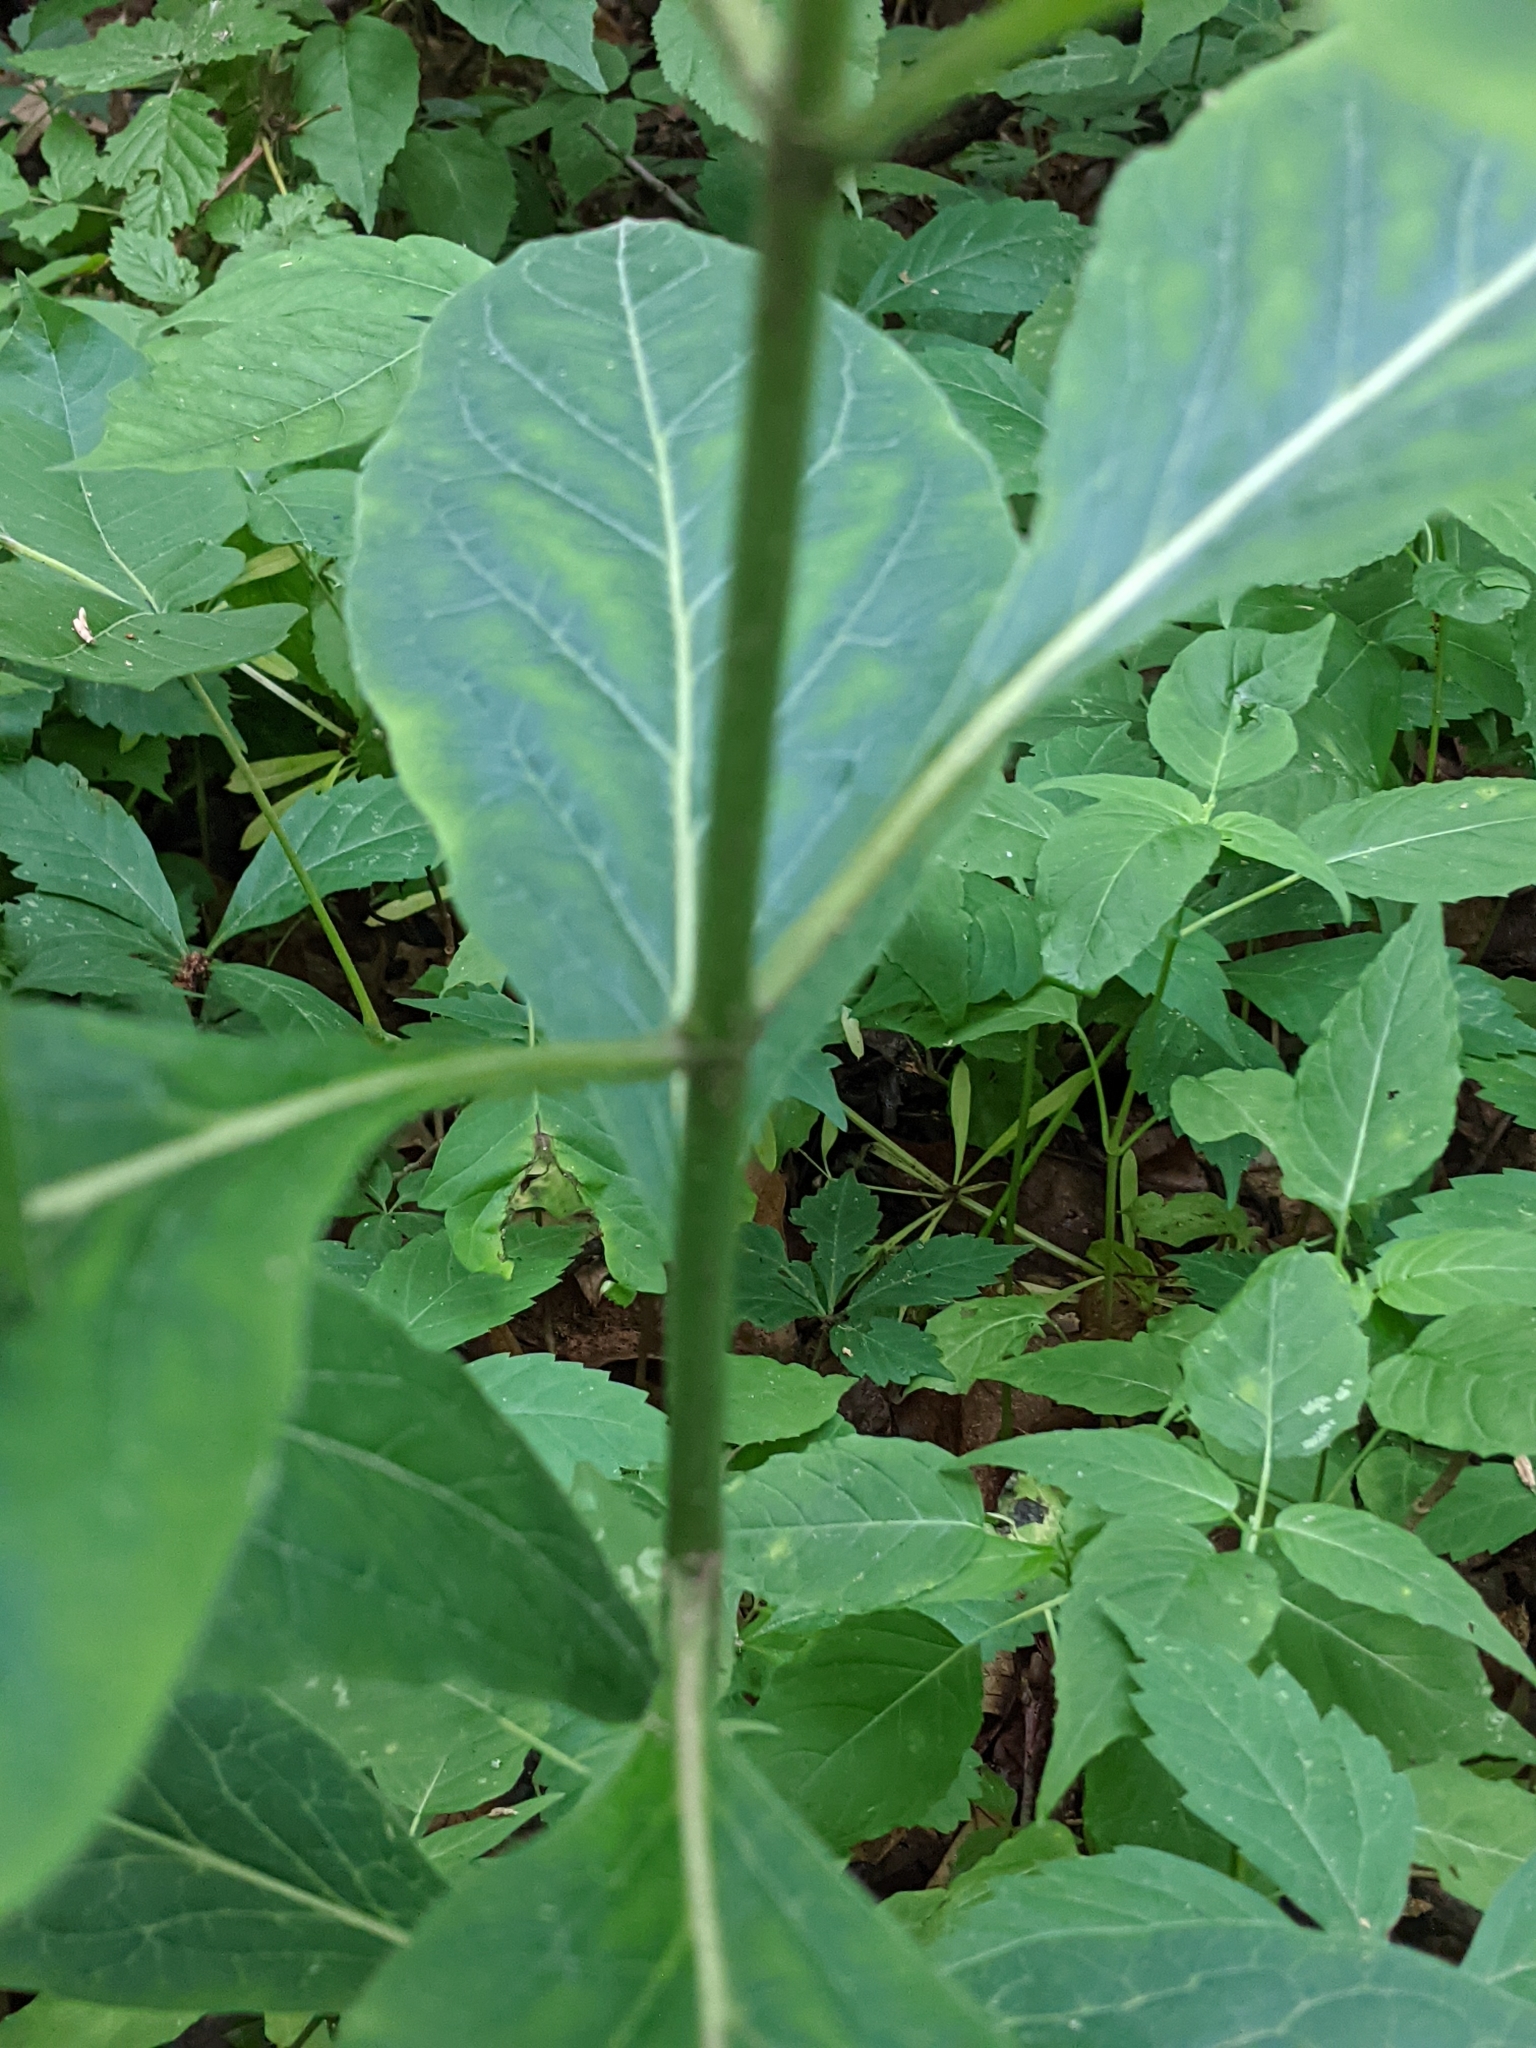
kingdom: Plantae
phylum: Tracheophyta
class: Magnoliopsida
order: Gentianales
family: Apocynaceae
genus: Asclepias
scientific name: Asclepias exaltata
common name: Poke milkweed
